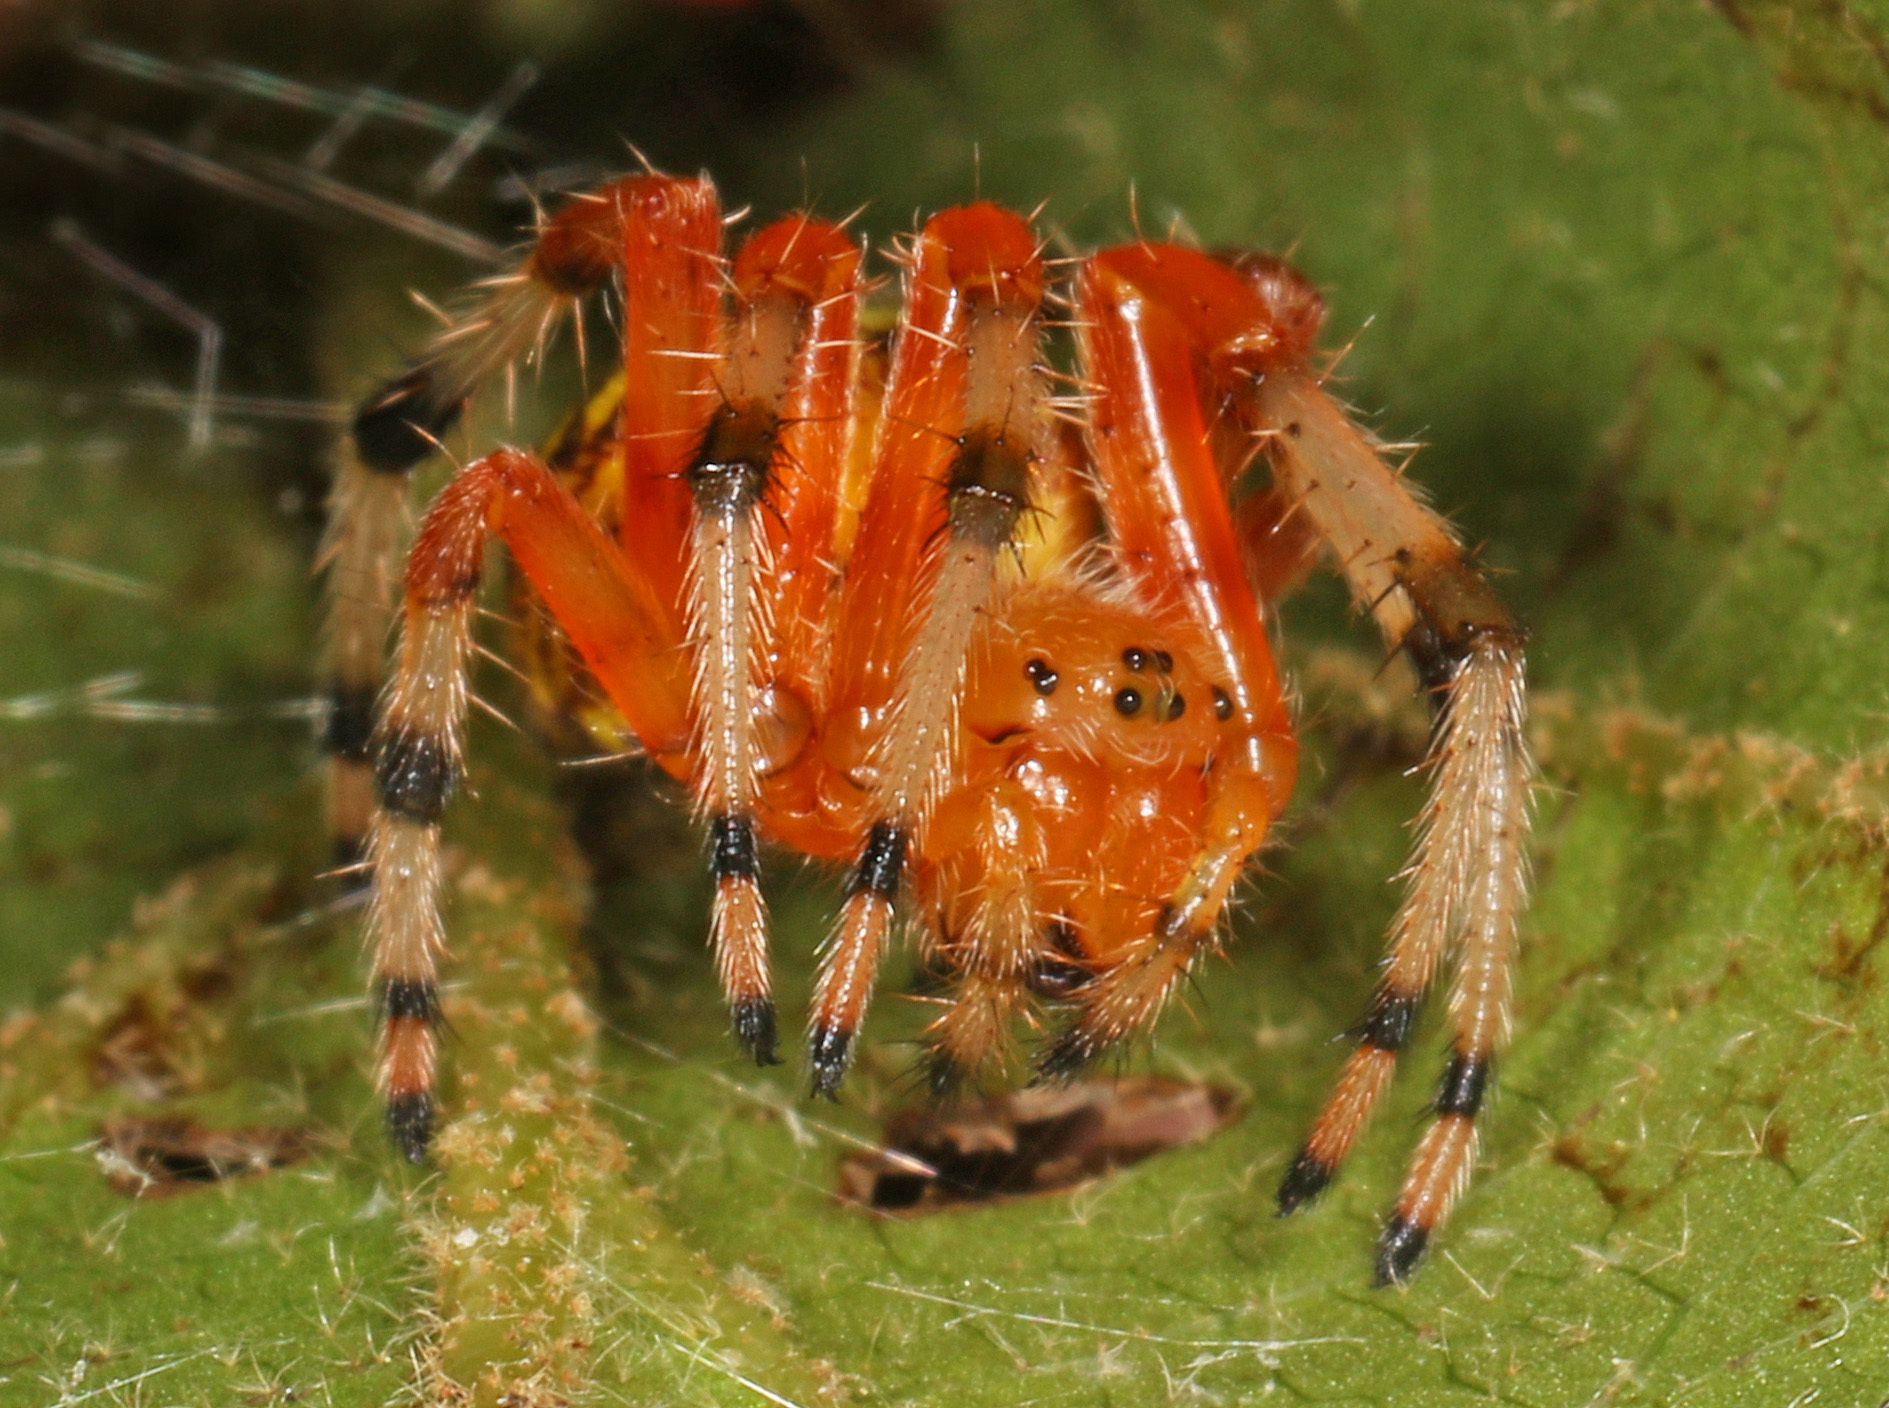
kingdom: Animalia
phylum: Arthropoda
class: Arachnida
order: Araneae
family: Araneidae
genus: Araneus
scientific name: Araneus marmoreus
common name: Marbled orbweaver
